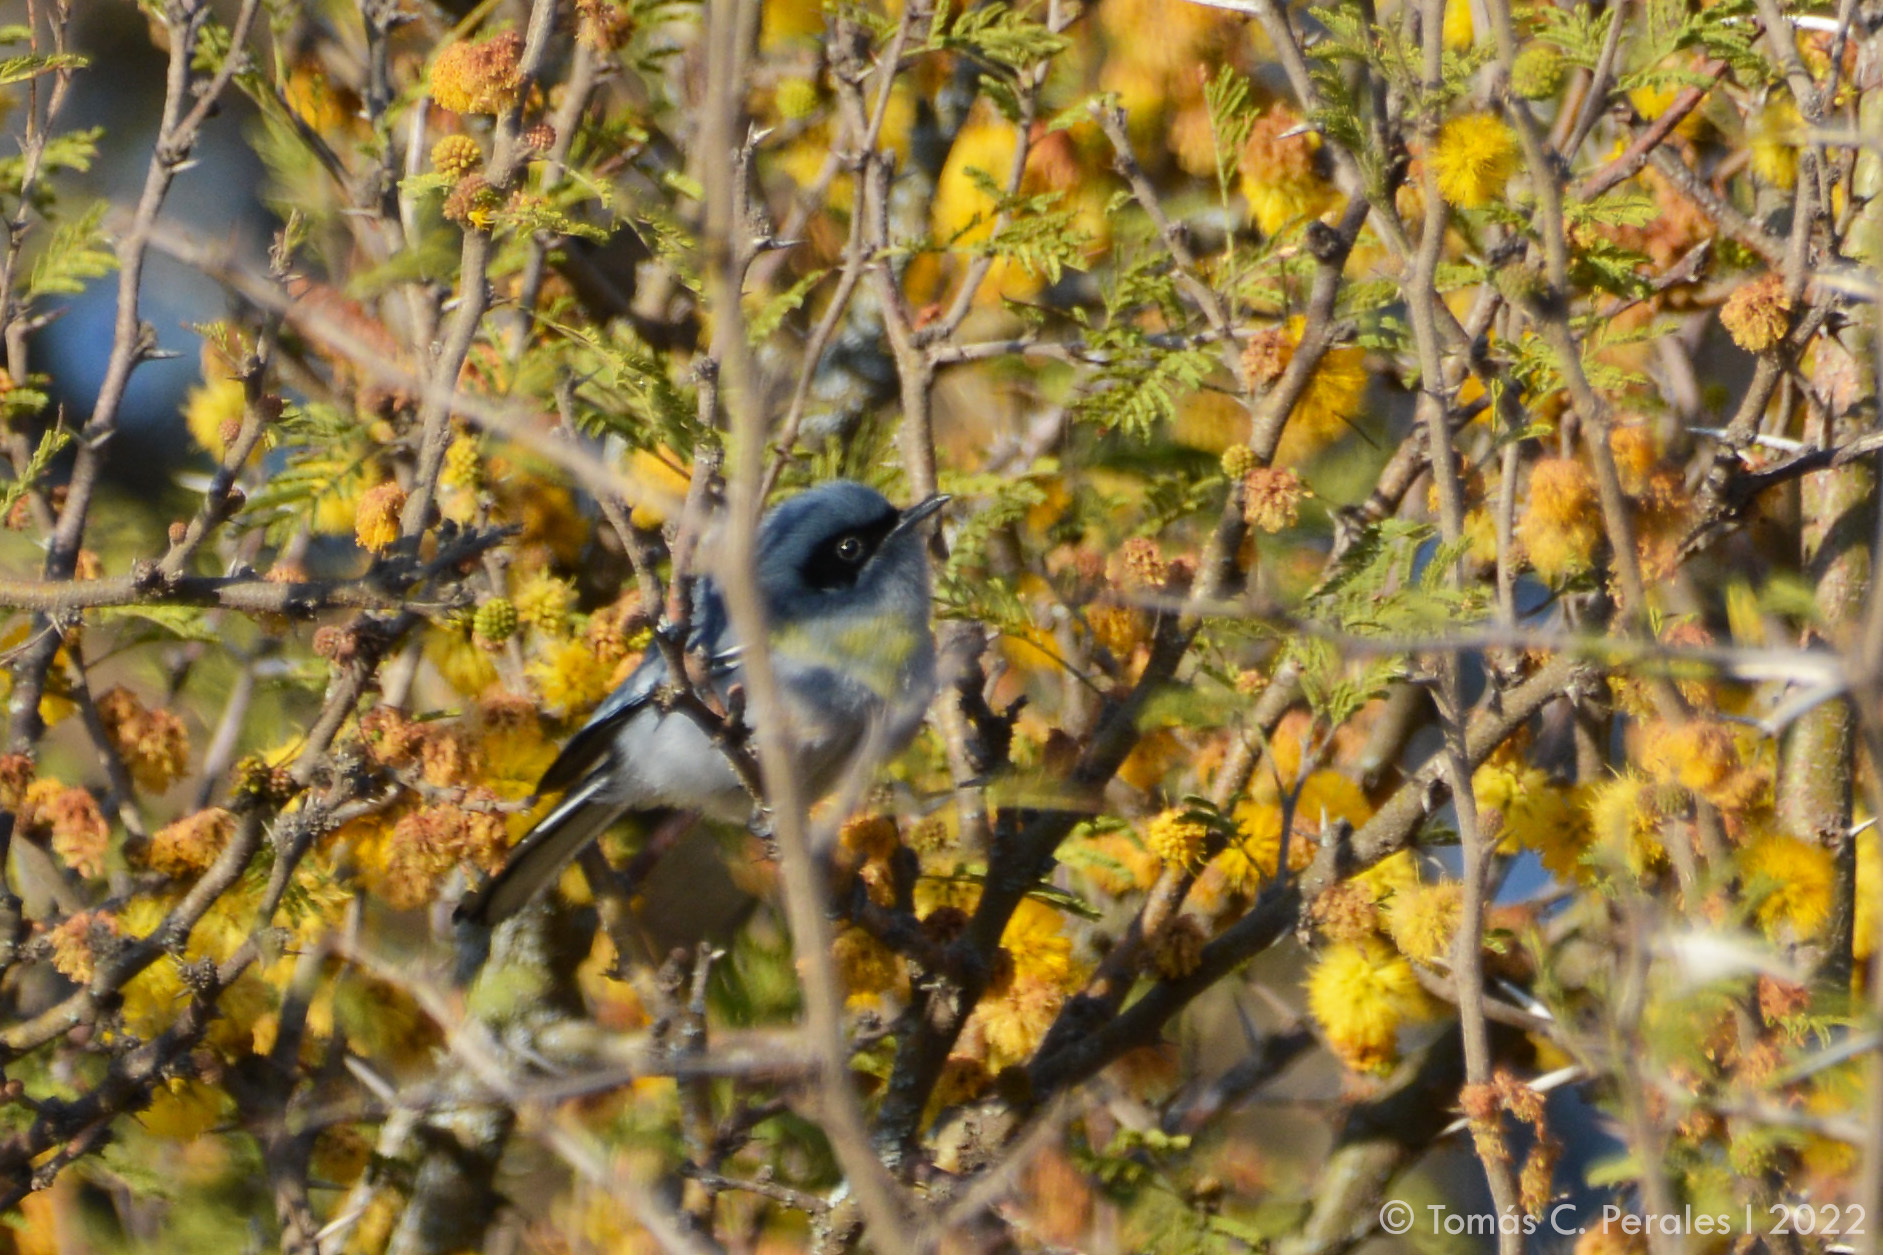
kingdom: Animalia
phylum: Chordata
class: Aves
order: Passeriformes
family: Polioptilidae
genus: Polioptila
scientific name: Polioptila dumicola
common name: Masked gnatcatcher
